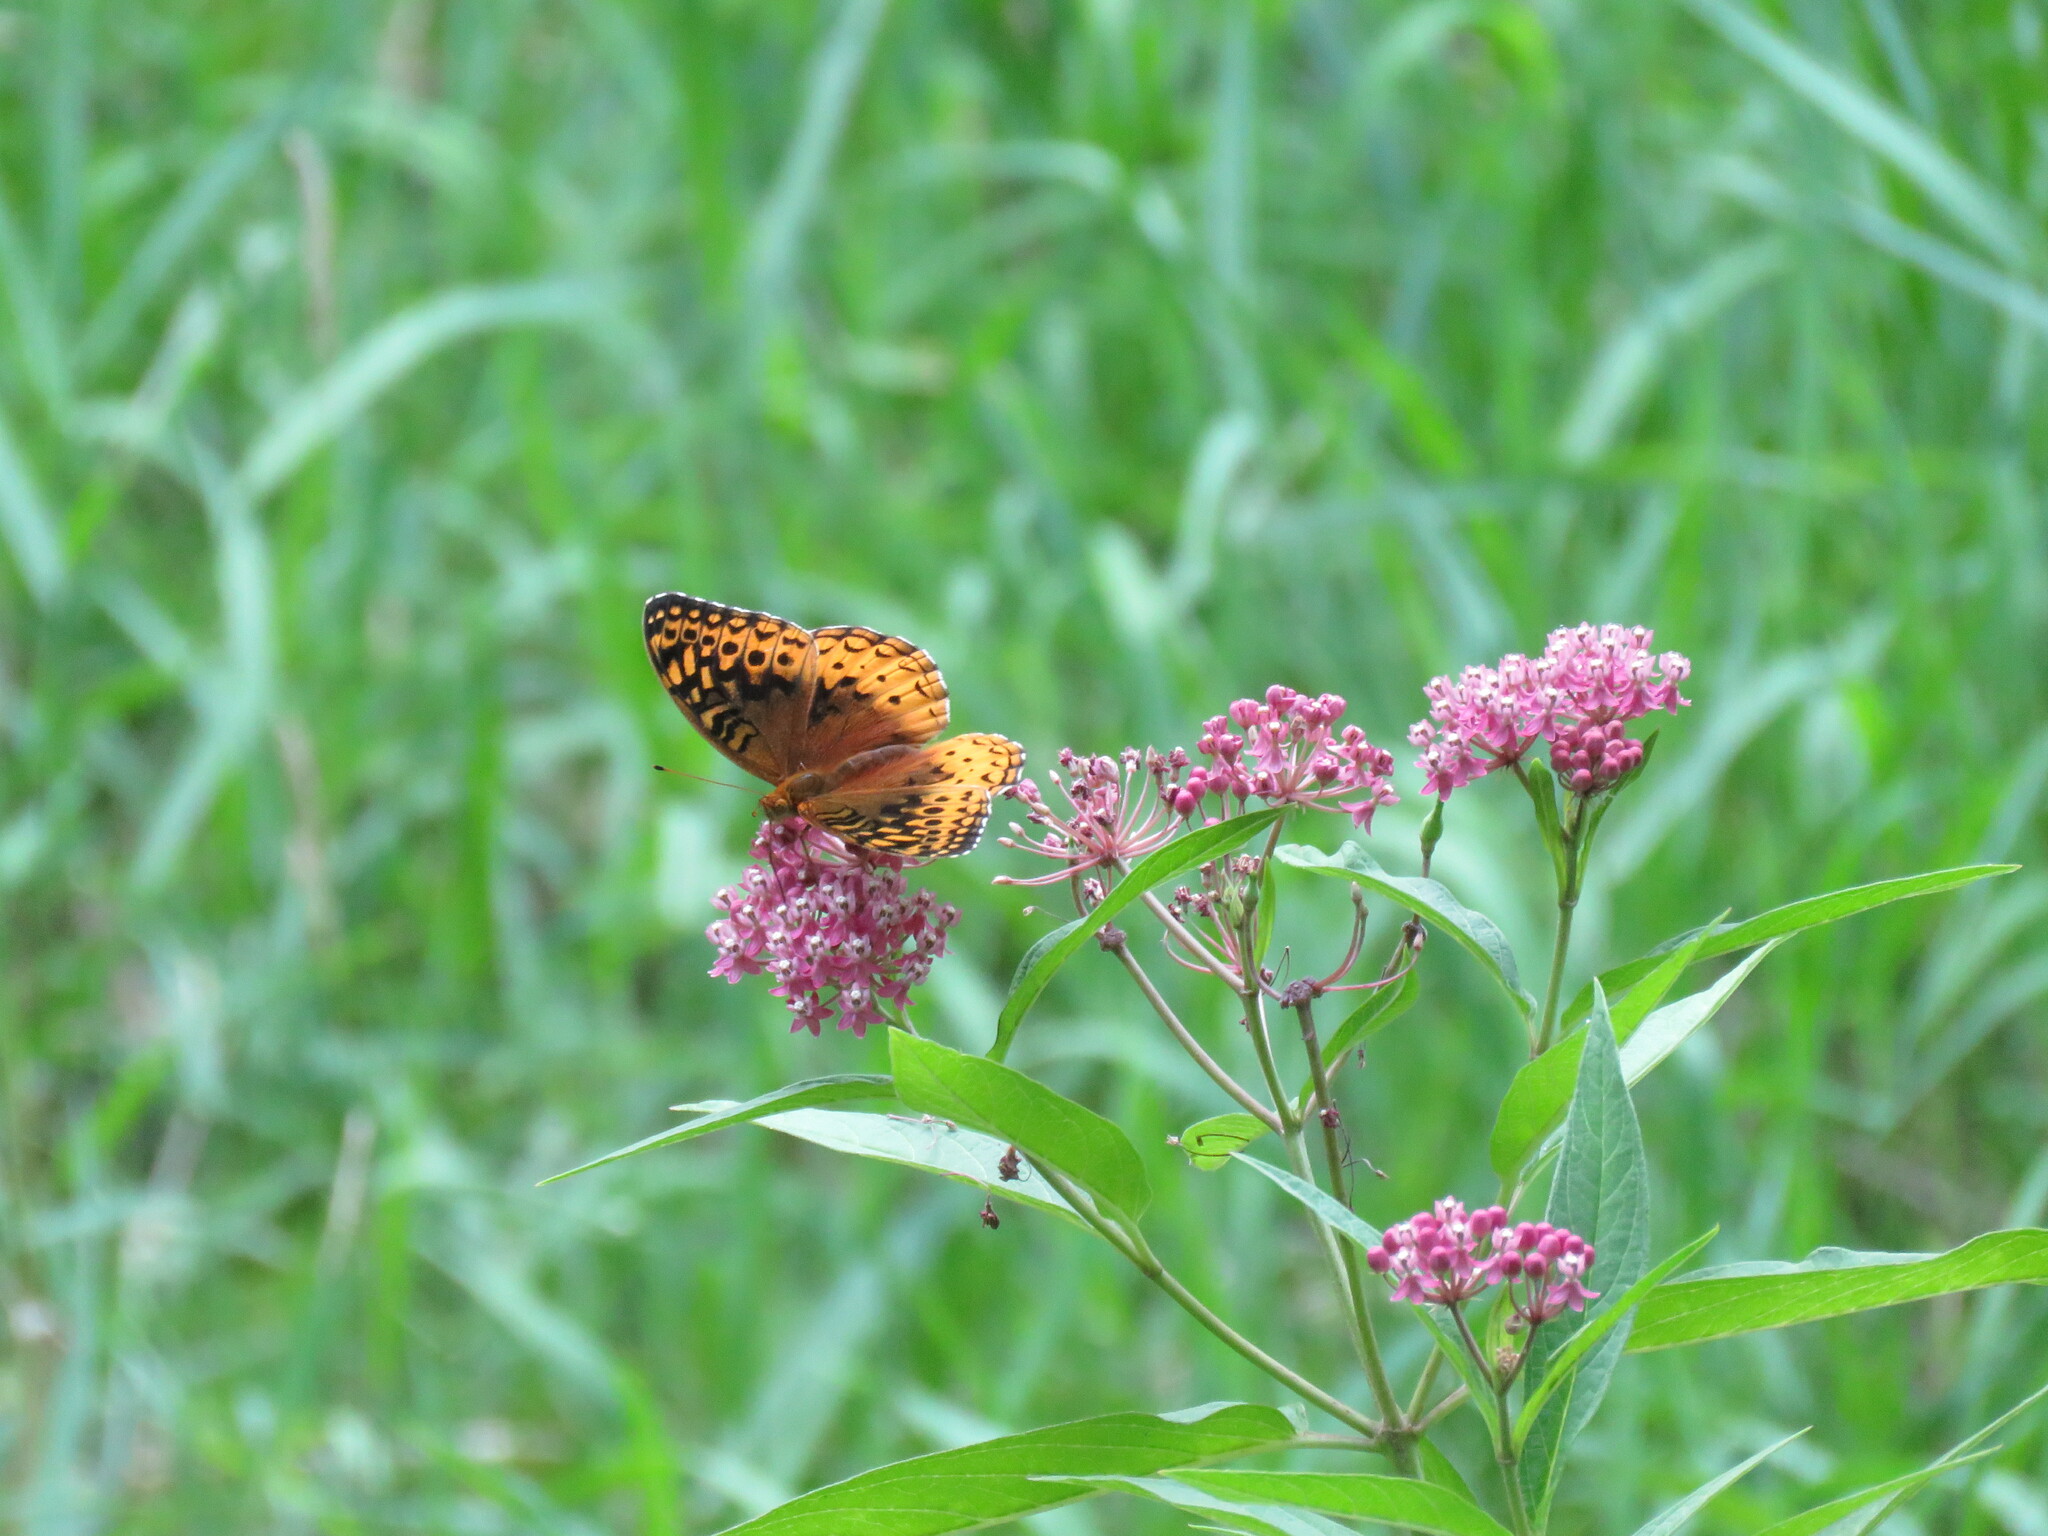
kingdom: Animalia
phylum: Arthropoda
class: Insecta
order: Lepidoptera
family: Nymphalidae
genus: Speyeria
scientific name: Speyeria cybele
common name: Great spangled fritillary
